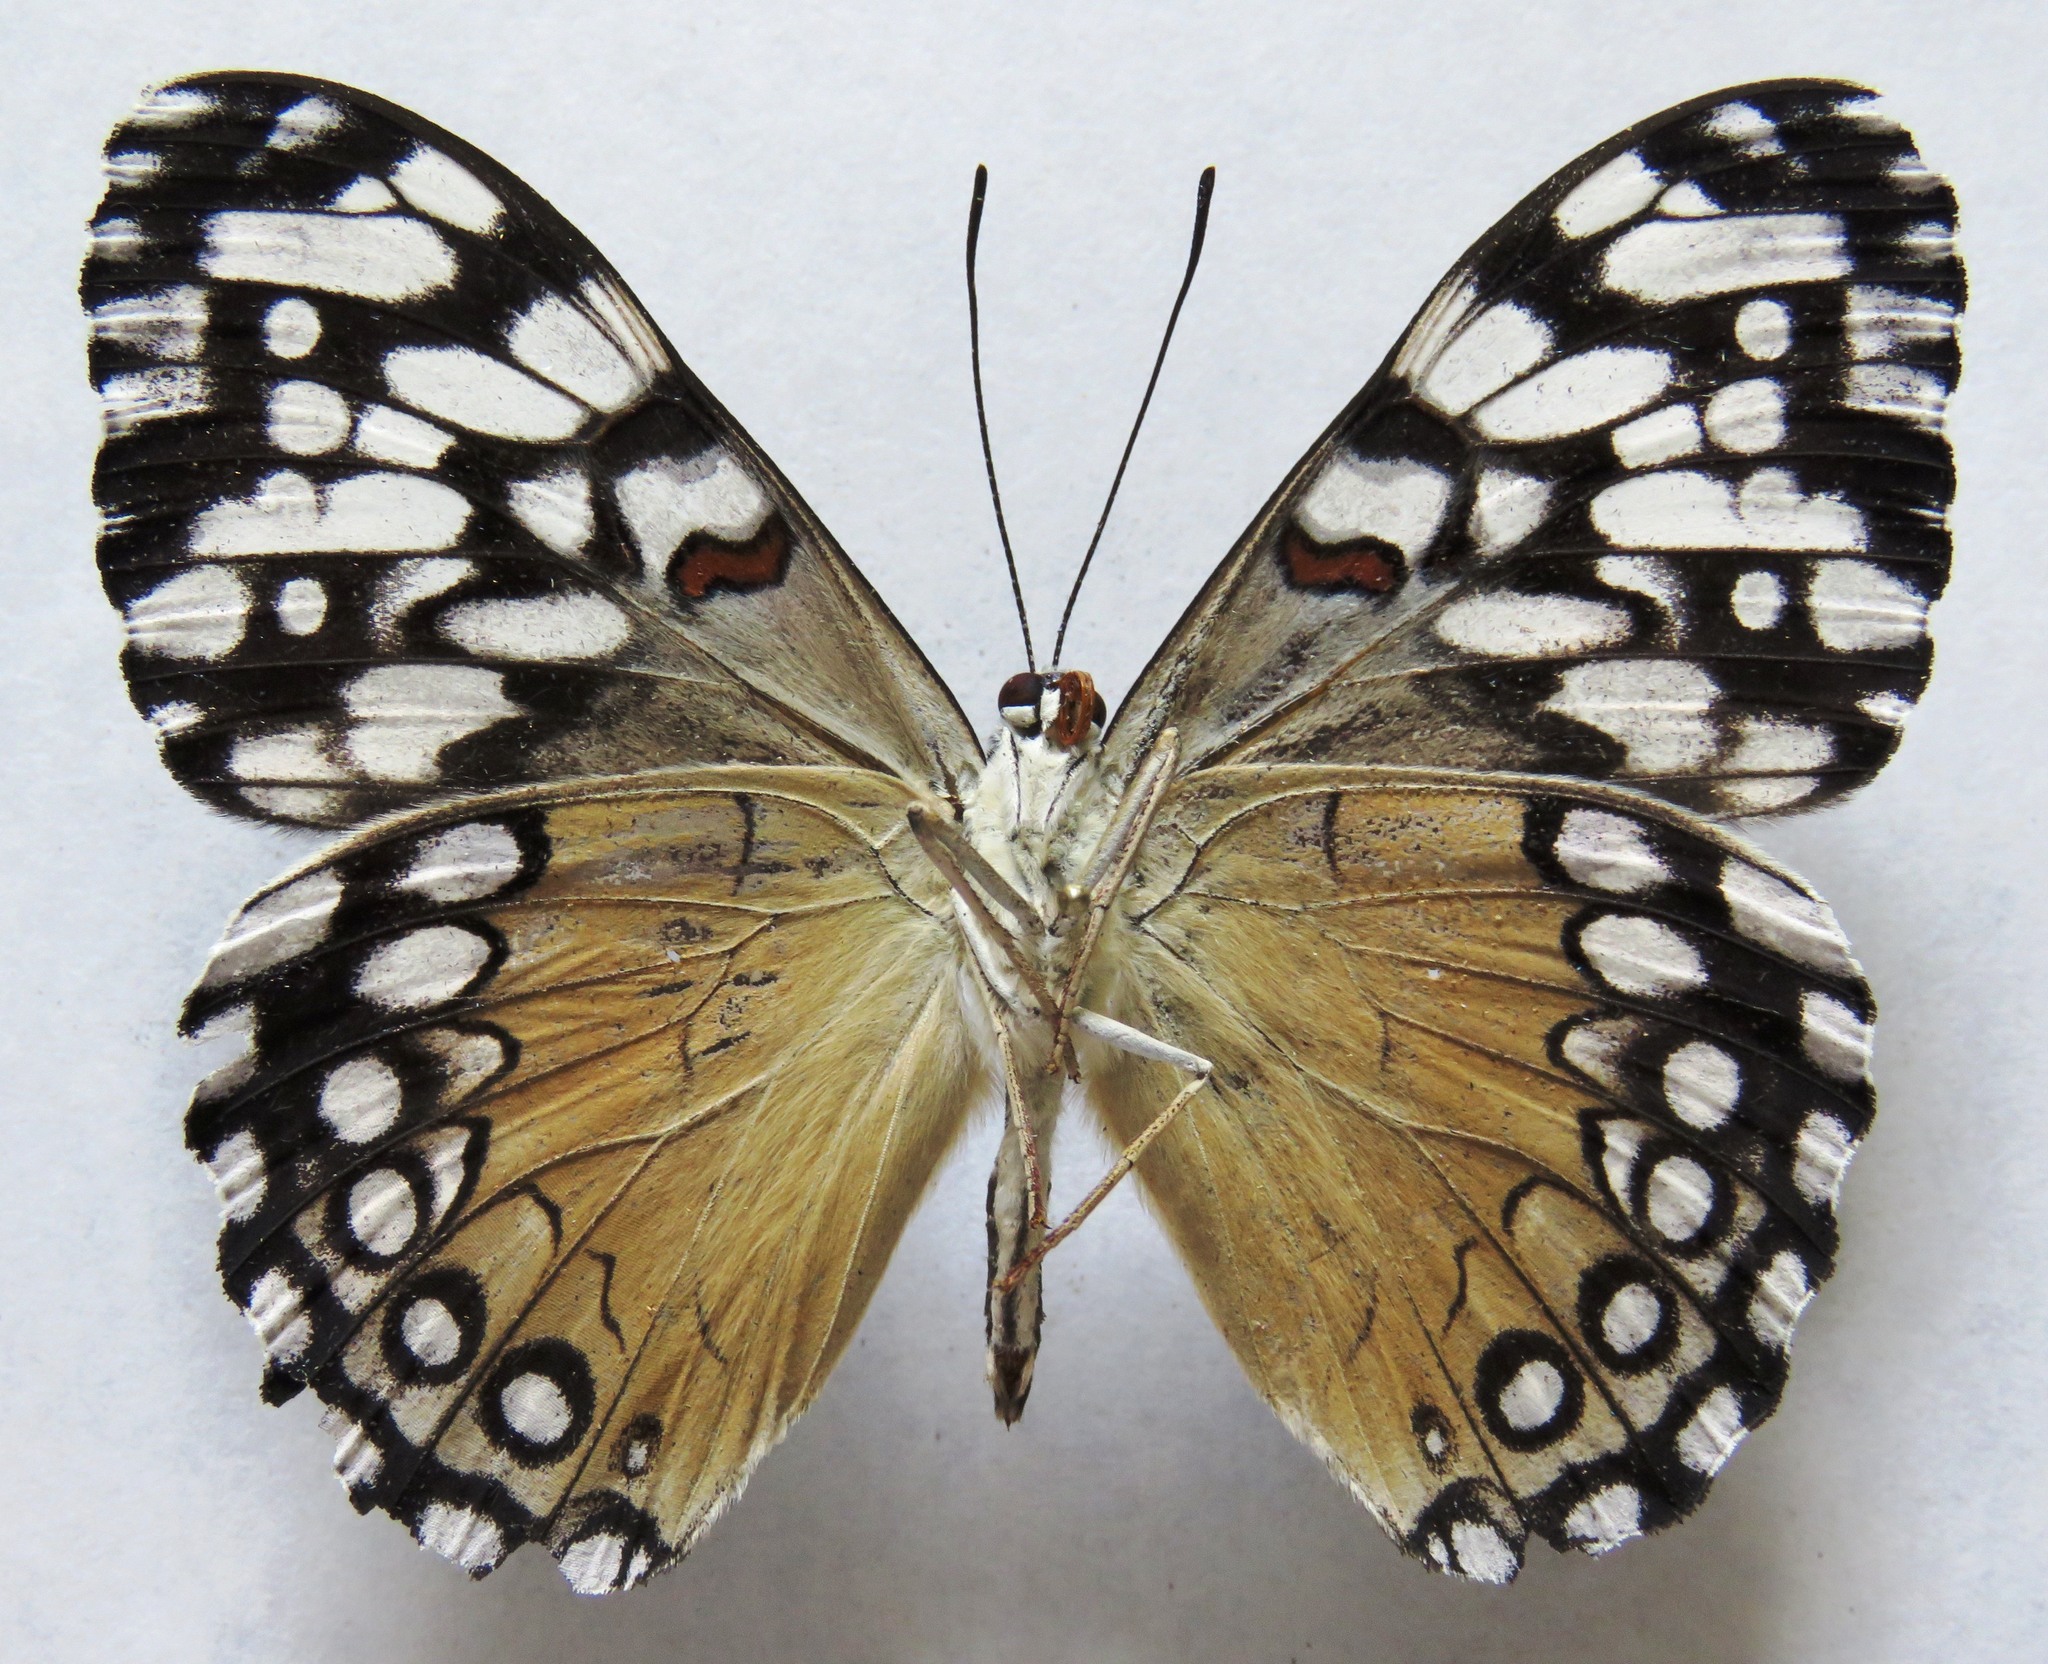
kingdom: Animalia
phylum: Arthropoda
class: Insecta
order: Lepidoptera
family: Nymphalidae
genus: Hamadryas
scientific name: Hamadryas guatemalena
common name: Guatemalan cracker
